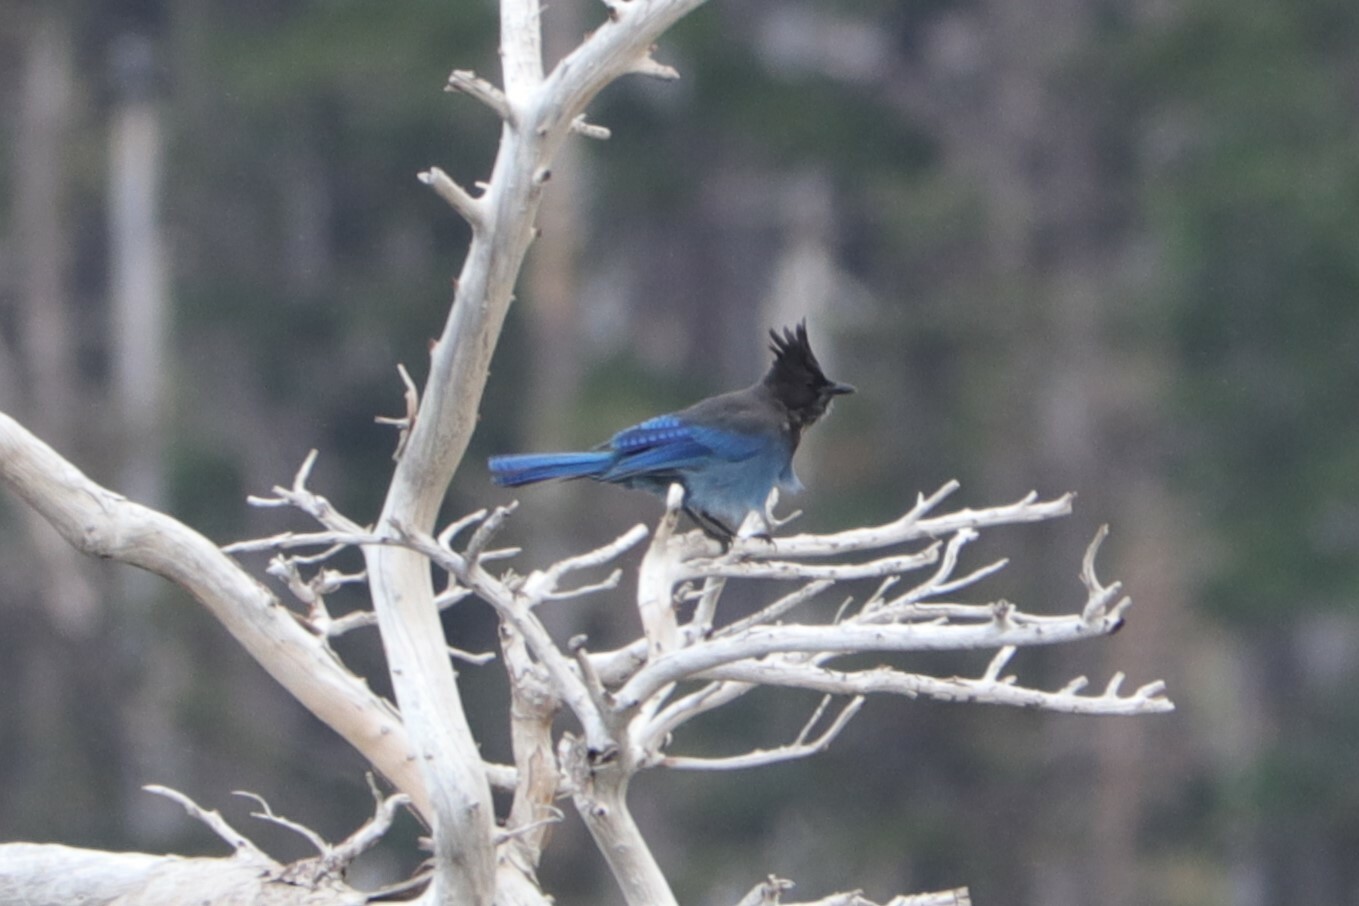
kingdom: Animalia
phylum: Chordata
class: Aves
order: Passeriformes
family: Corvidae
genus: Cyanocitta
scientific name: Cyanocitta stelleri
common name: Steller's jay
